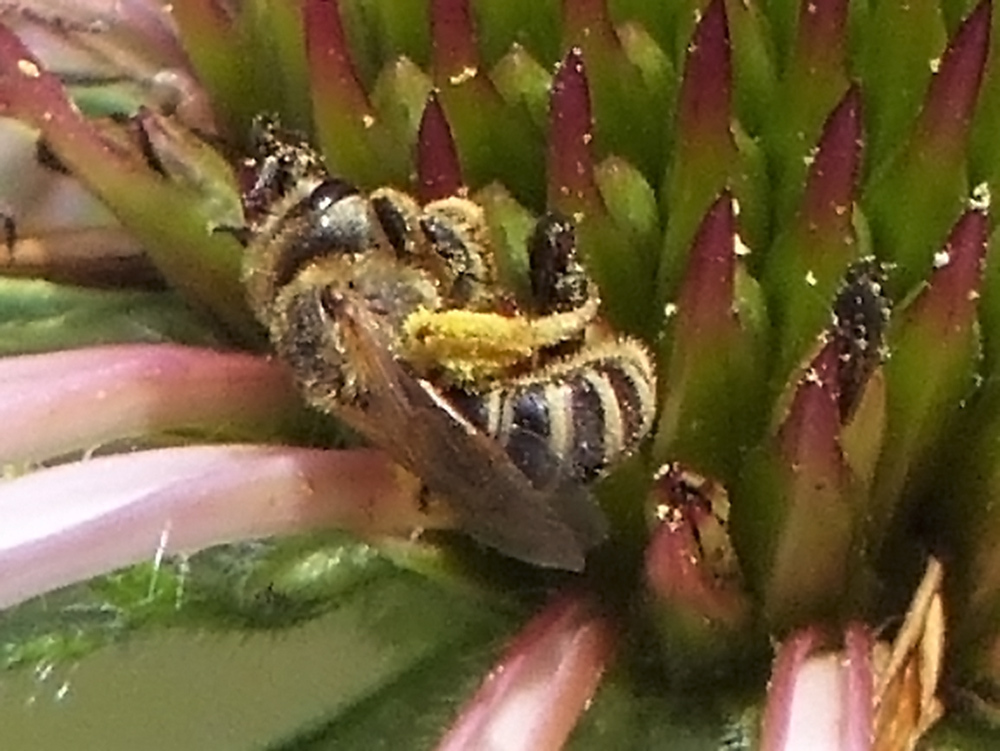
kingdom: Animalia
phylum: Arthropoda
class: Insecta
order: Hymenoptera
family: Halictidae
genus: Halictus
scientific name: Halictus ligatus
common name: Ligated furrow bee
